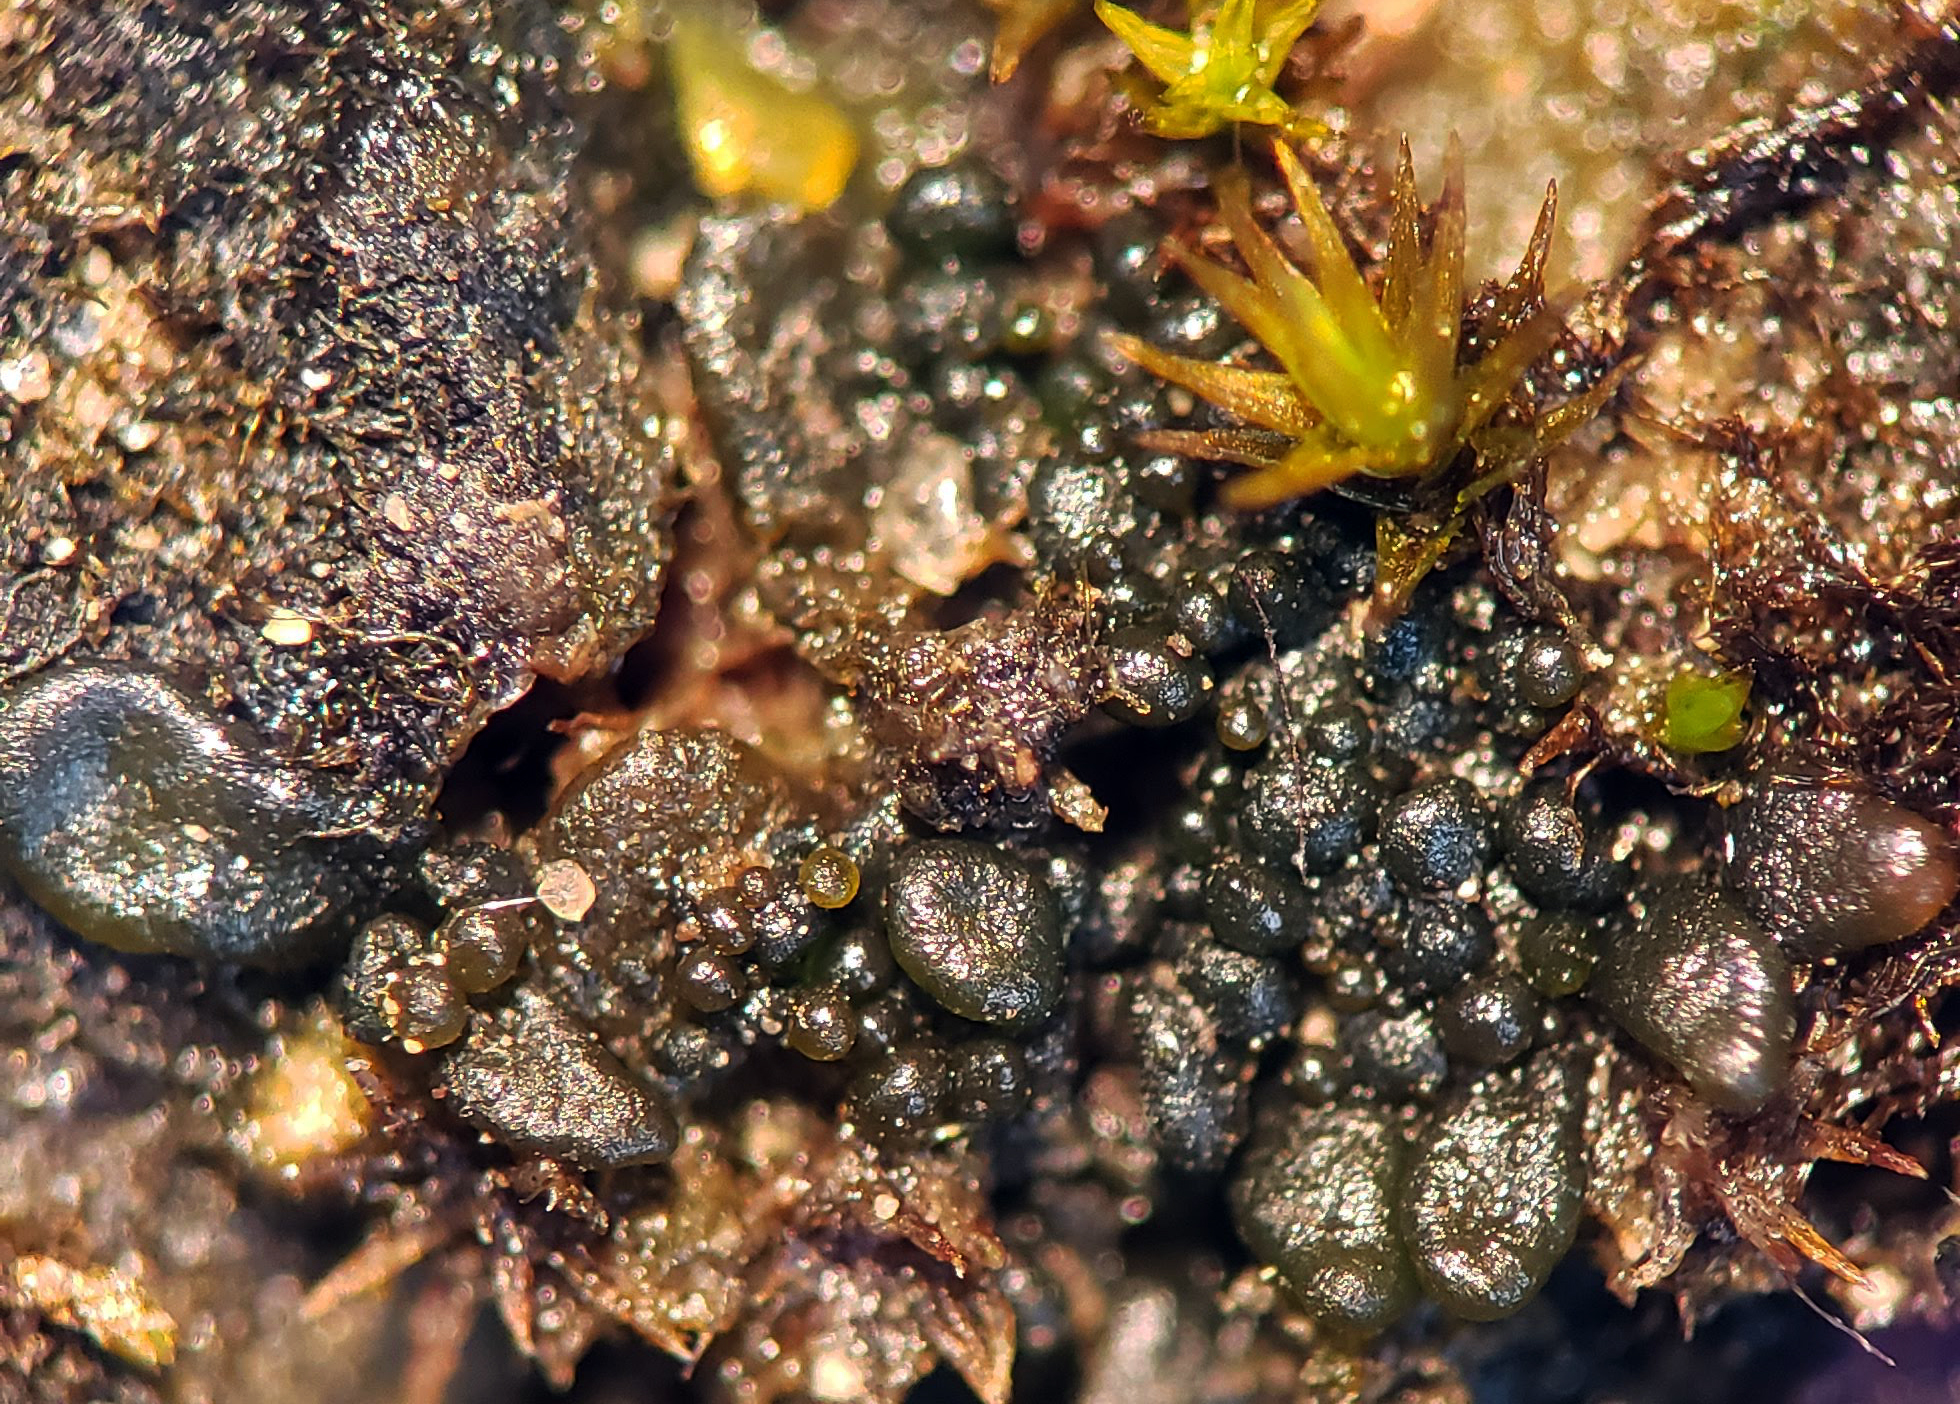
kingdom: Bacteria
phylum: Cyanobacteria
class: Cyanobacteriia
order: Cyanobacteriales
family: Nostocaceae
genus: Nostoc
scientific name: Nostoc commune
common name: Star jelly
